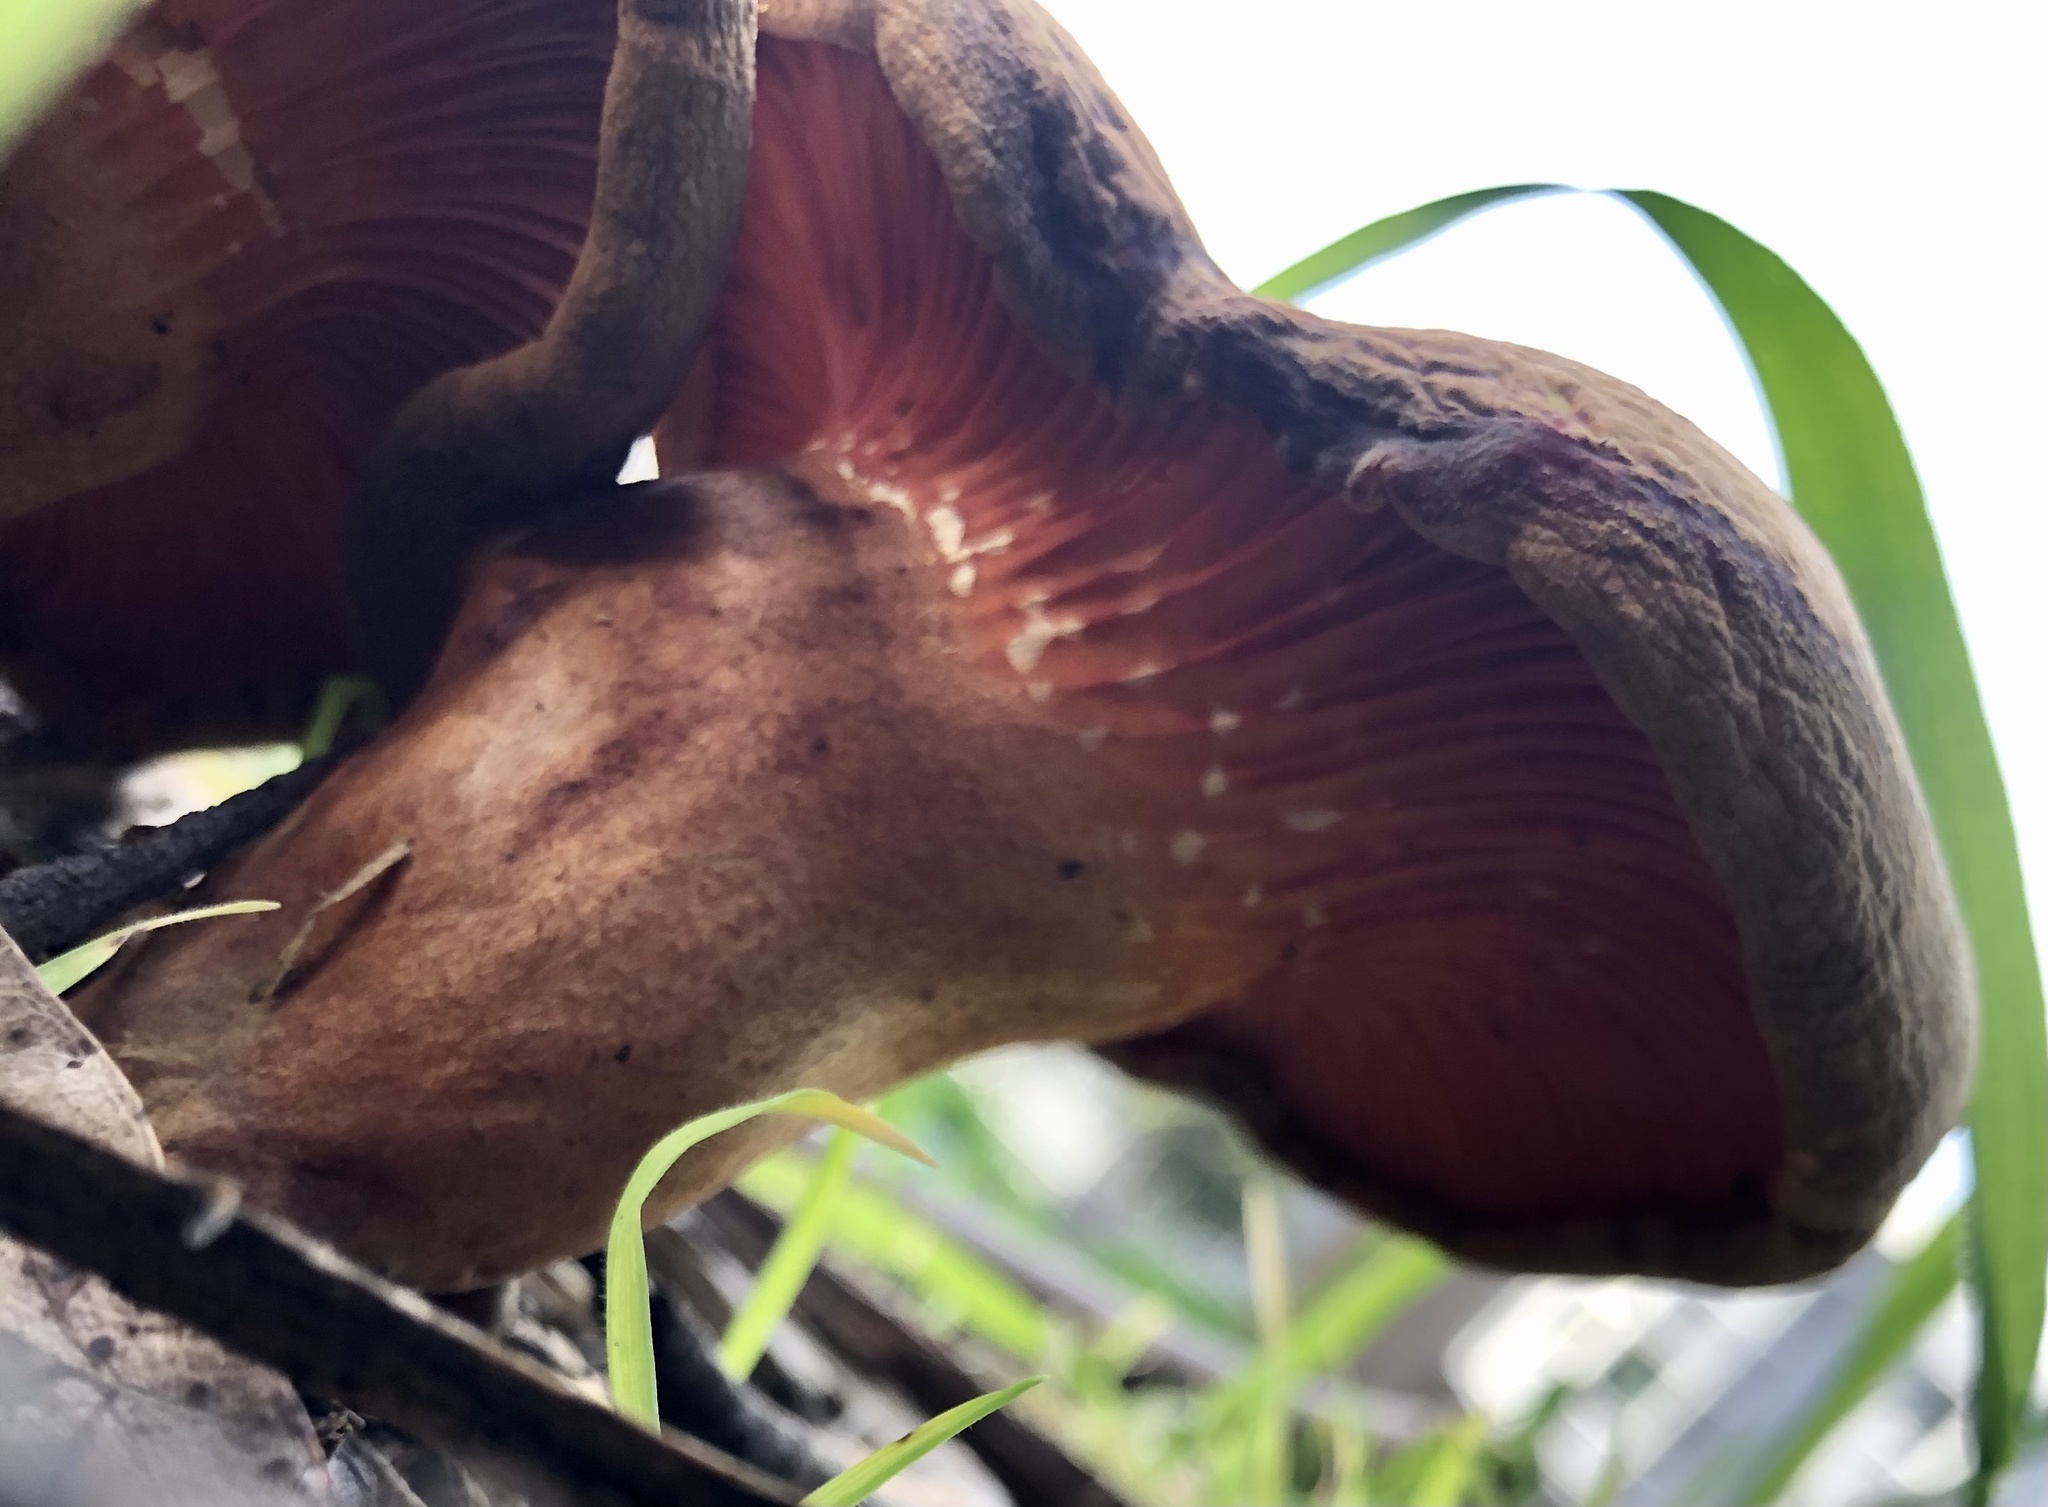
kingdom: Fungi
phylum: Basidiomycota
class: Agaricomycetes
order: Agaricales
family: Omphalotaceae
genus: Omphalotus
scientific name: Omphalotus olivascens
